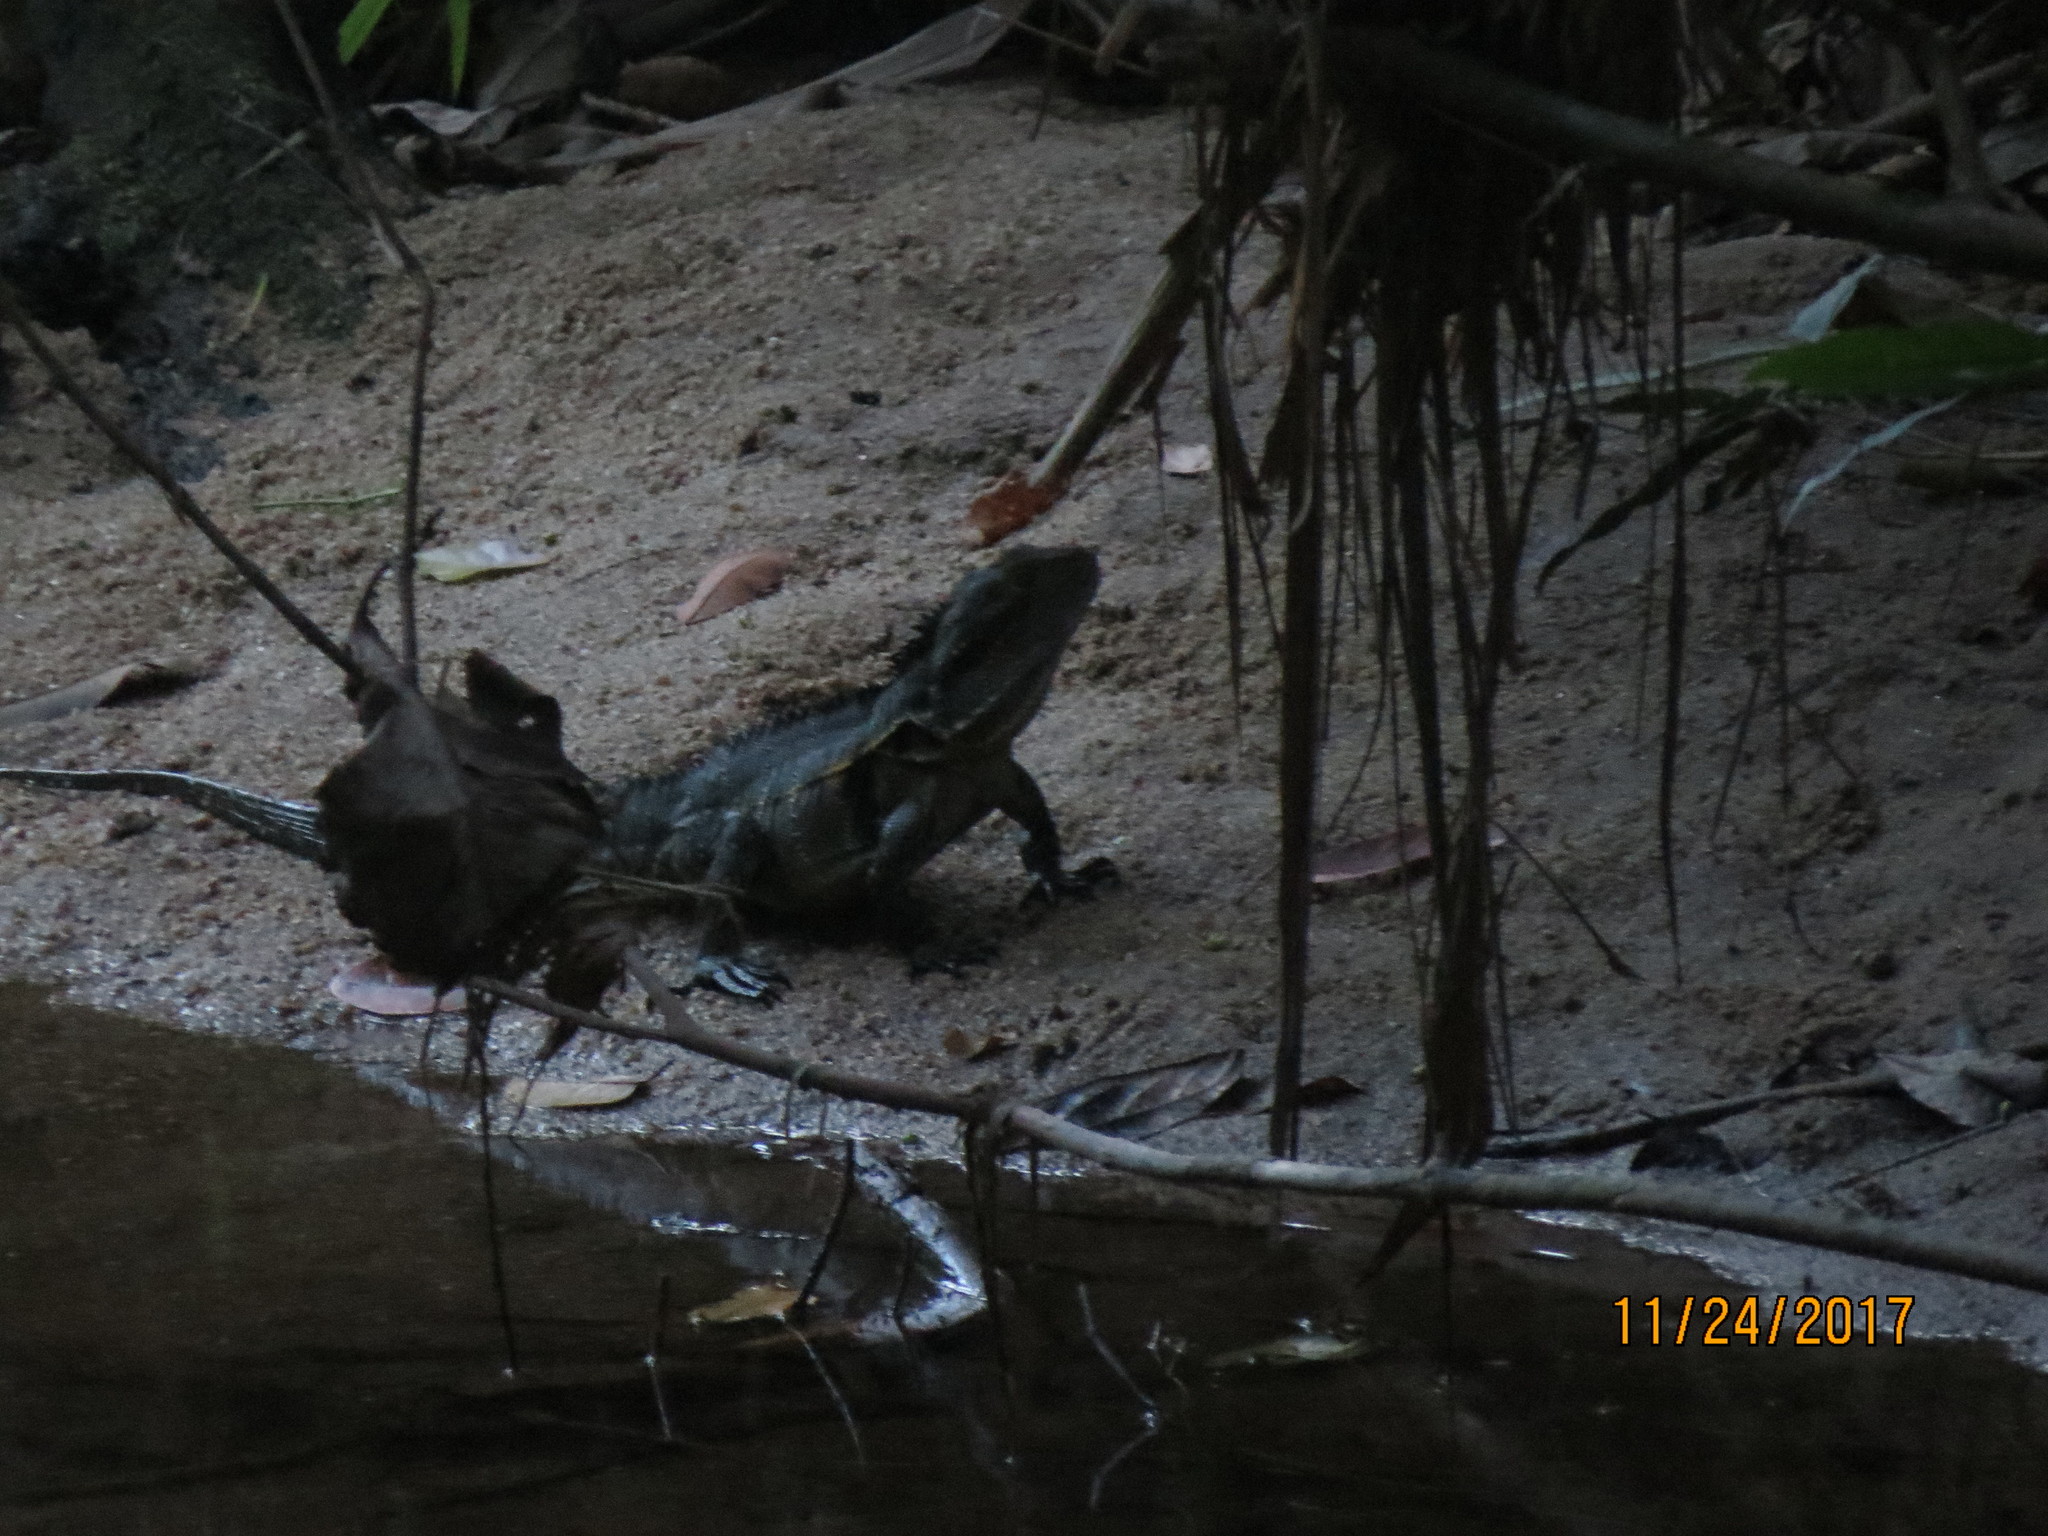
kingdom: Animalia
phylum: Chordata
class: Squamata
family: Agamidae
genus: Intellagama
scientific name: Intellagama lesueurii
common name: Eastern water dragon
